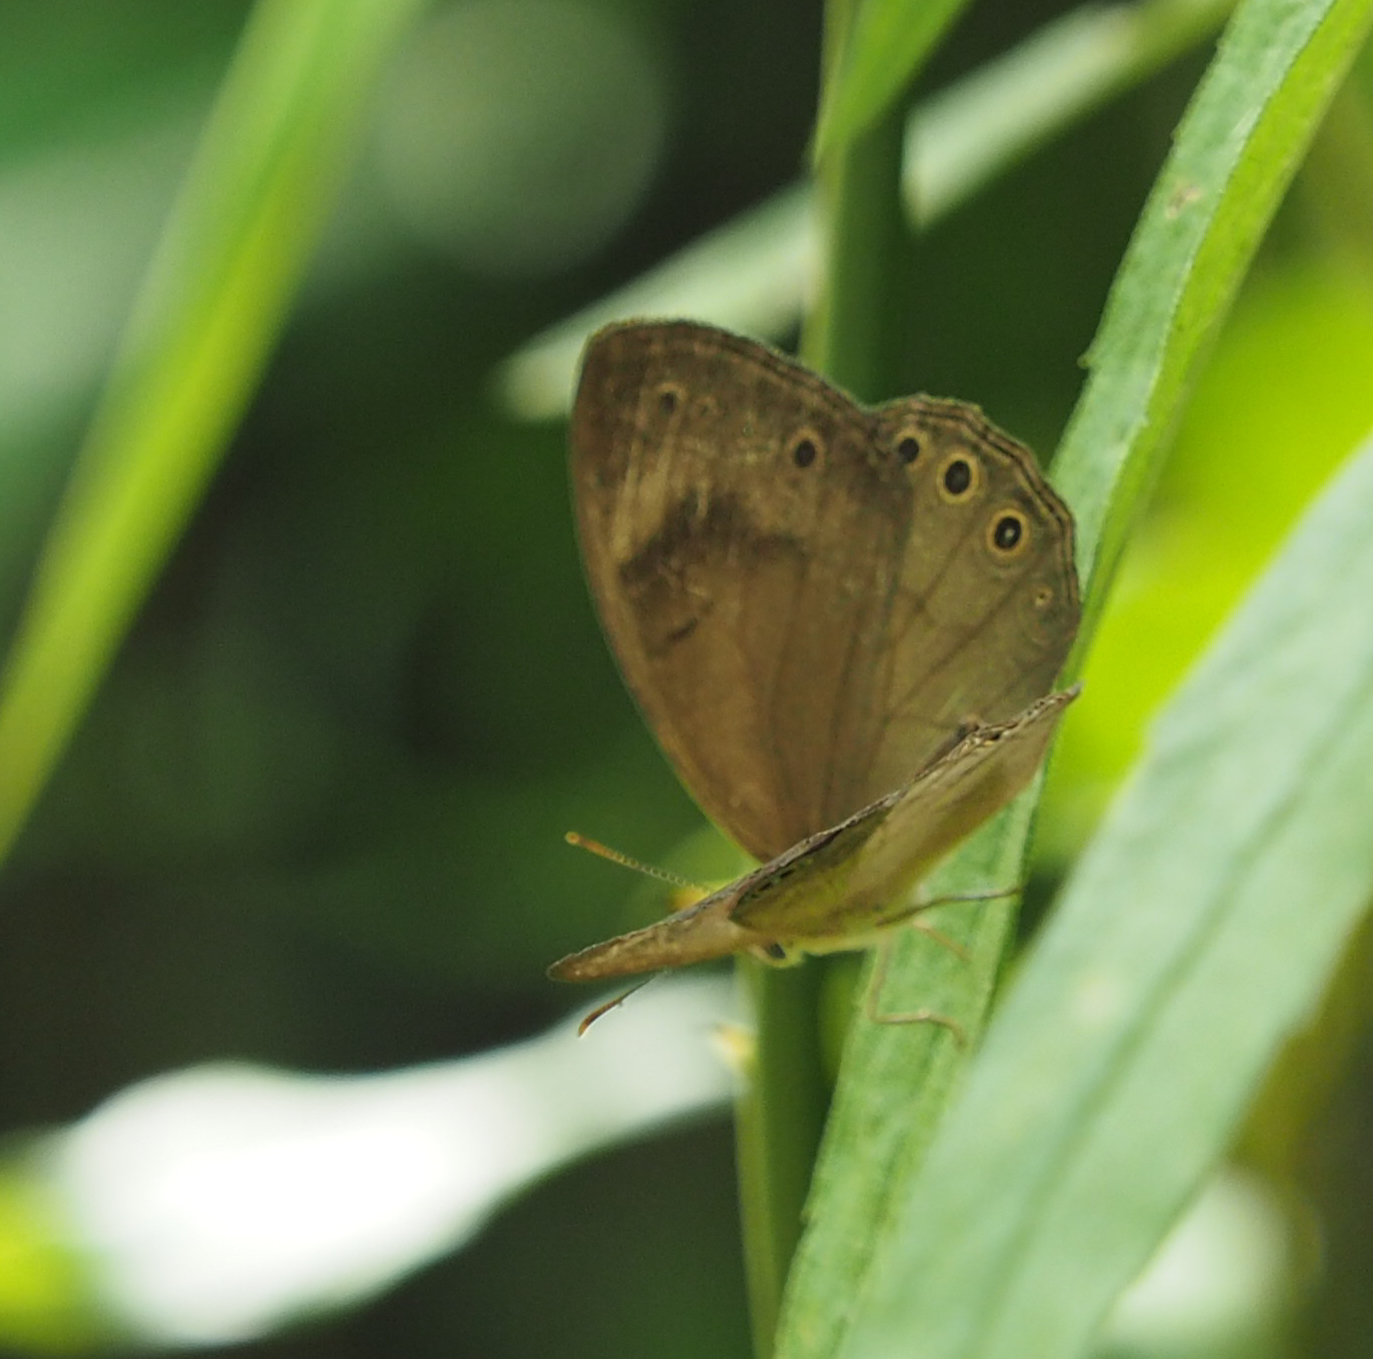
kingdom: Animalia
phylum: Arthropoda
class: Insecta
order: Lepidoptera
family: Nymphalidae
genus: Lethe
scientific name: Lethe eurydice
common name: Eyed brown
